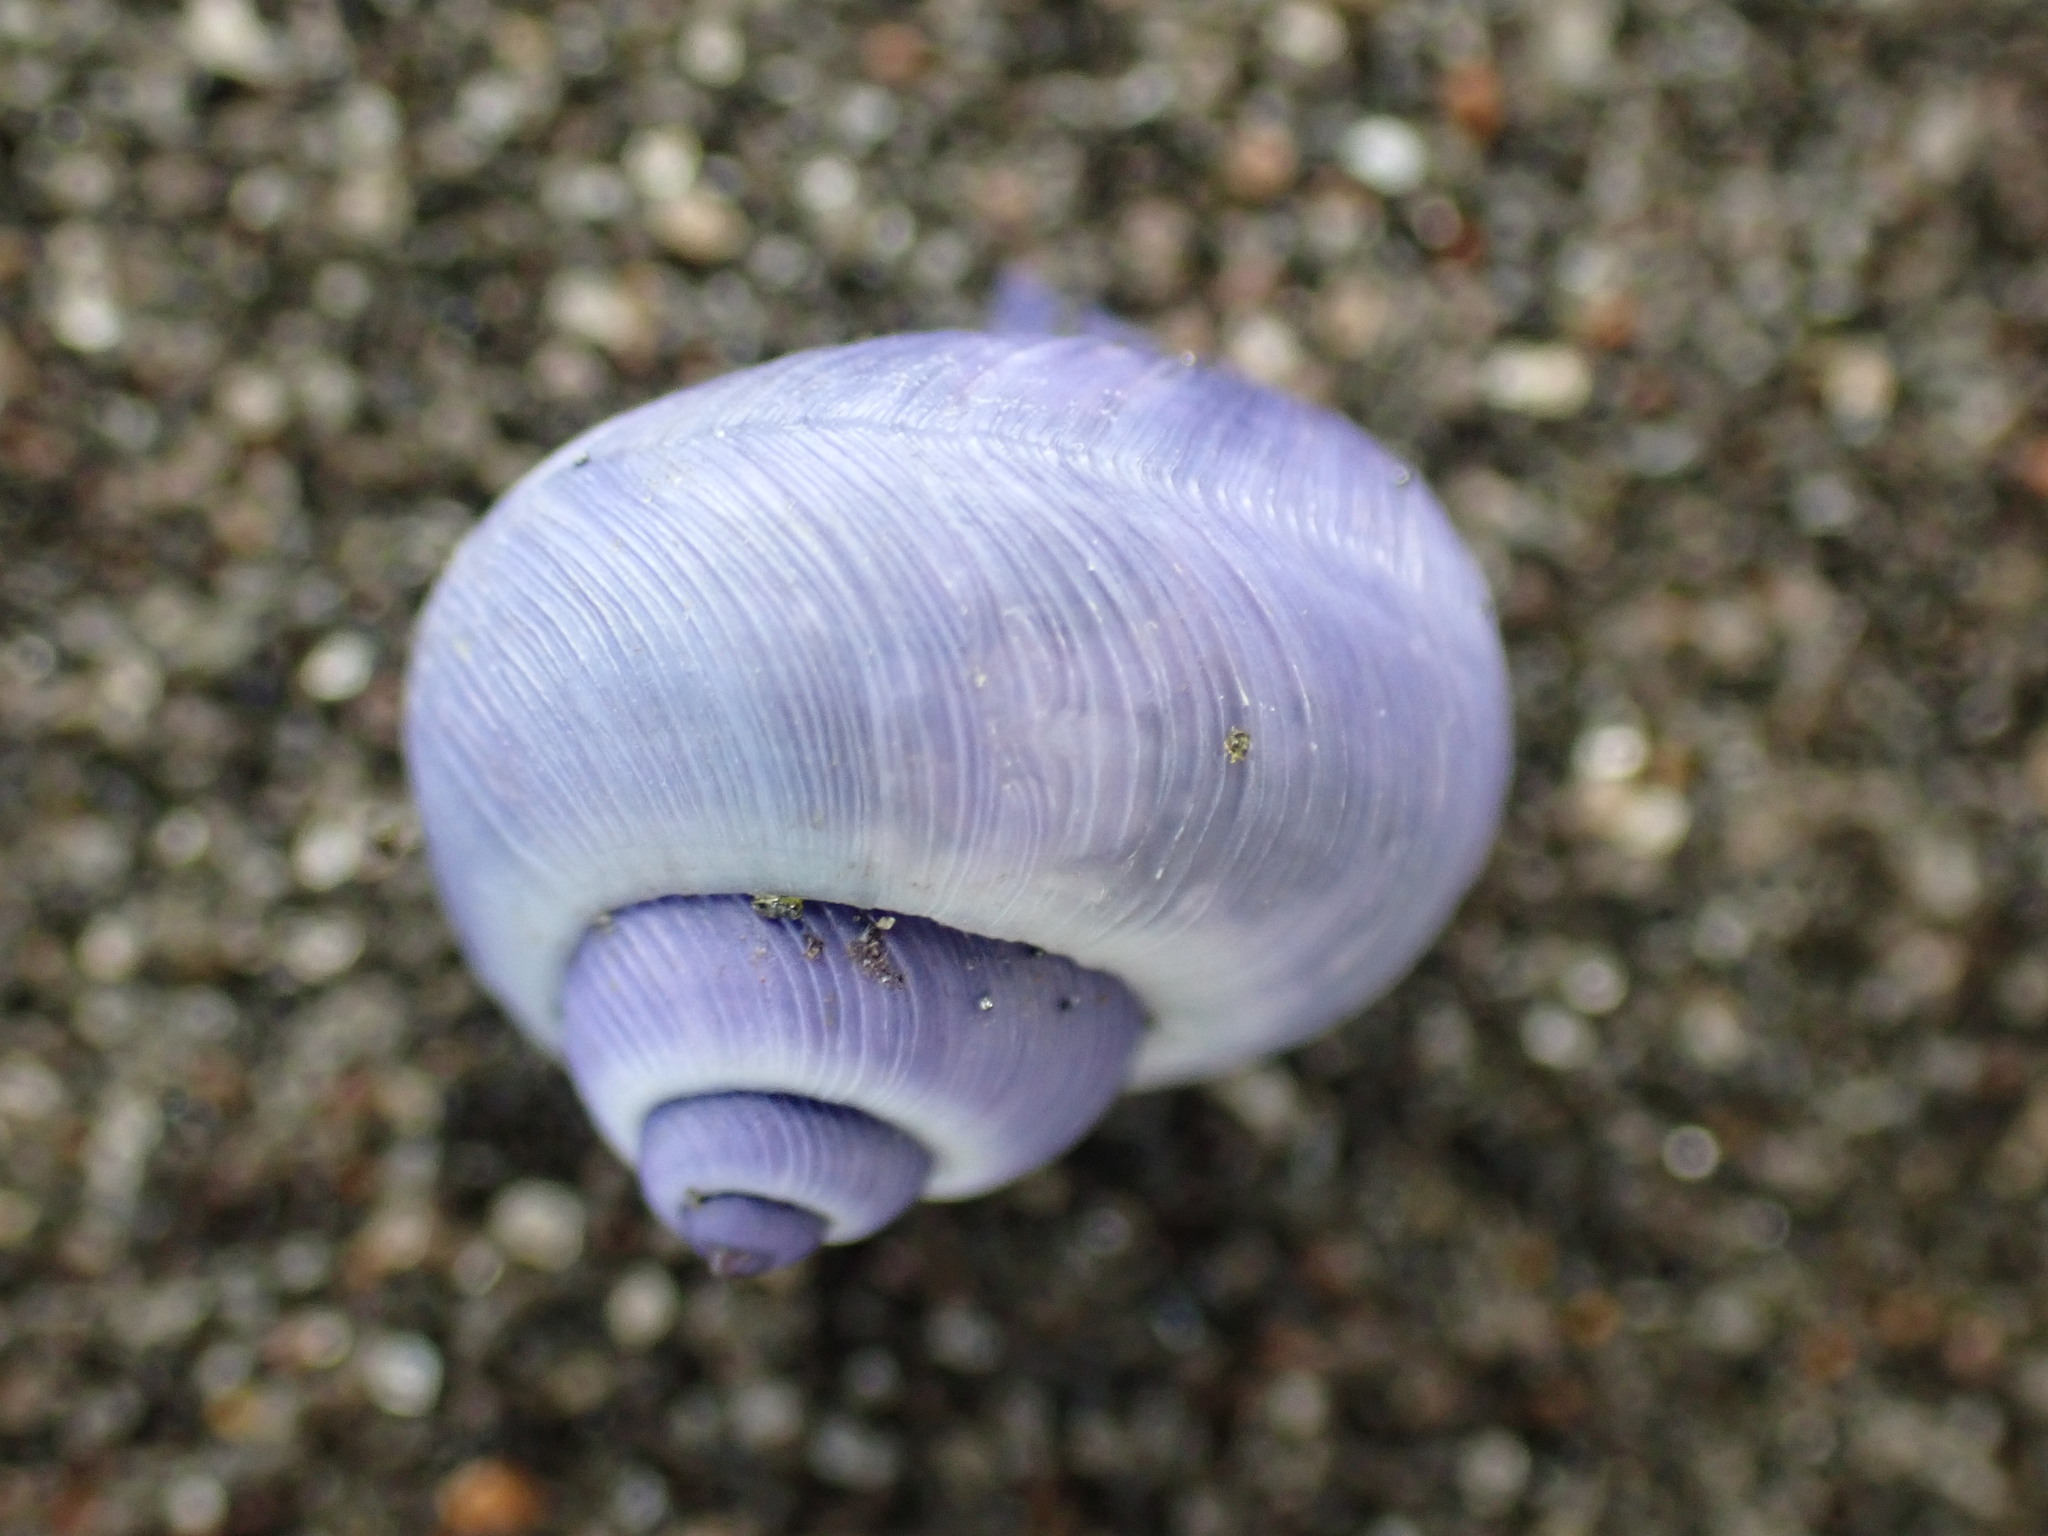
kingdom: Animalia
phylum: Mollusca
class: Gastropoda
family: Epitoniidae
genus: Janthina
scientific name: Janthina exigua
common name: Dwarf janthina
